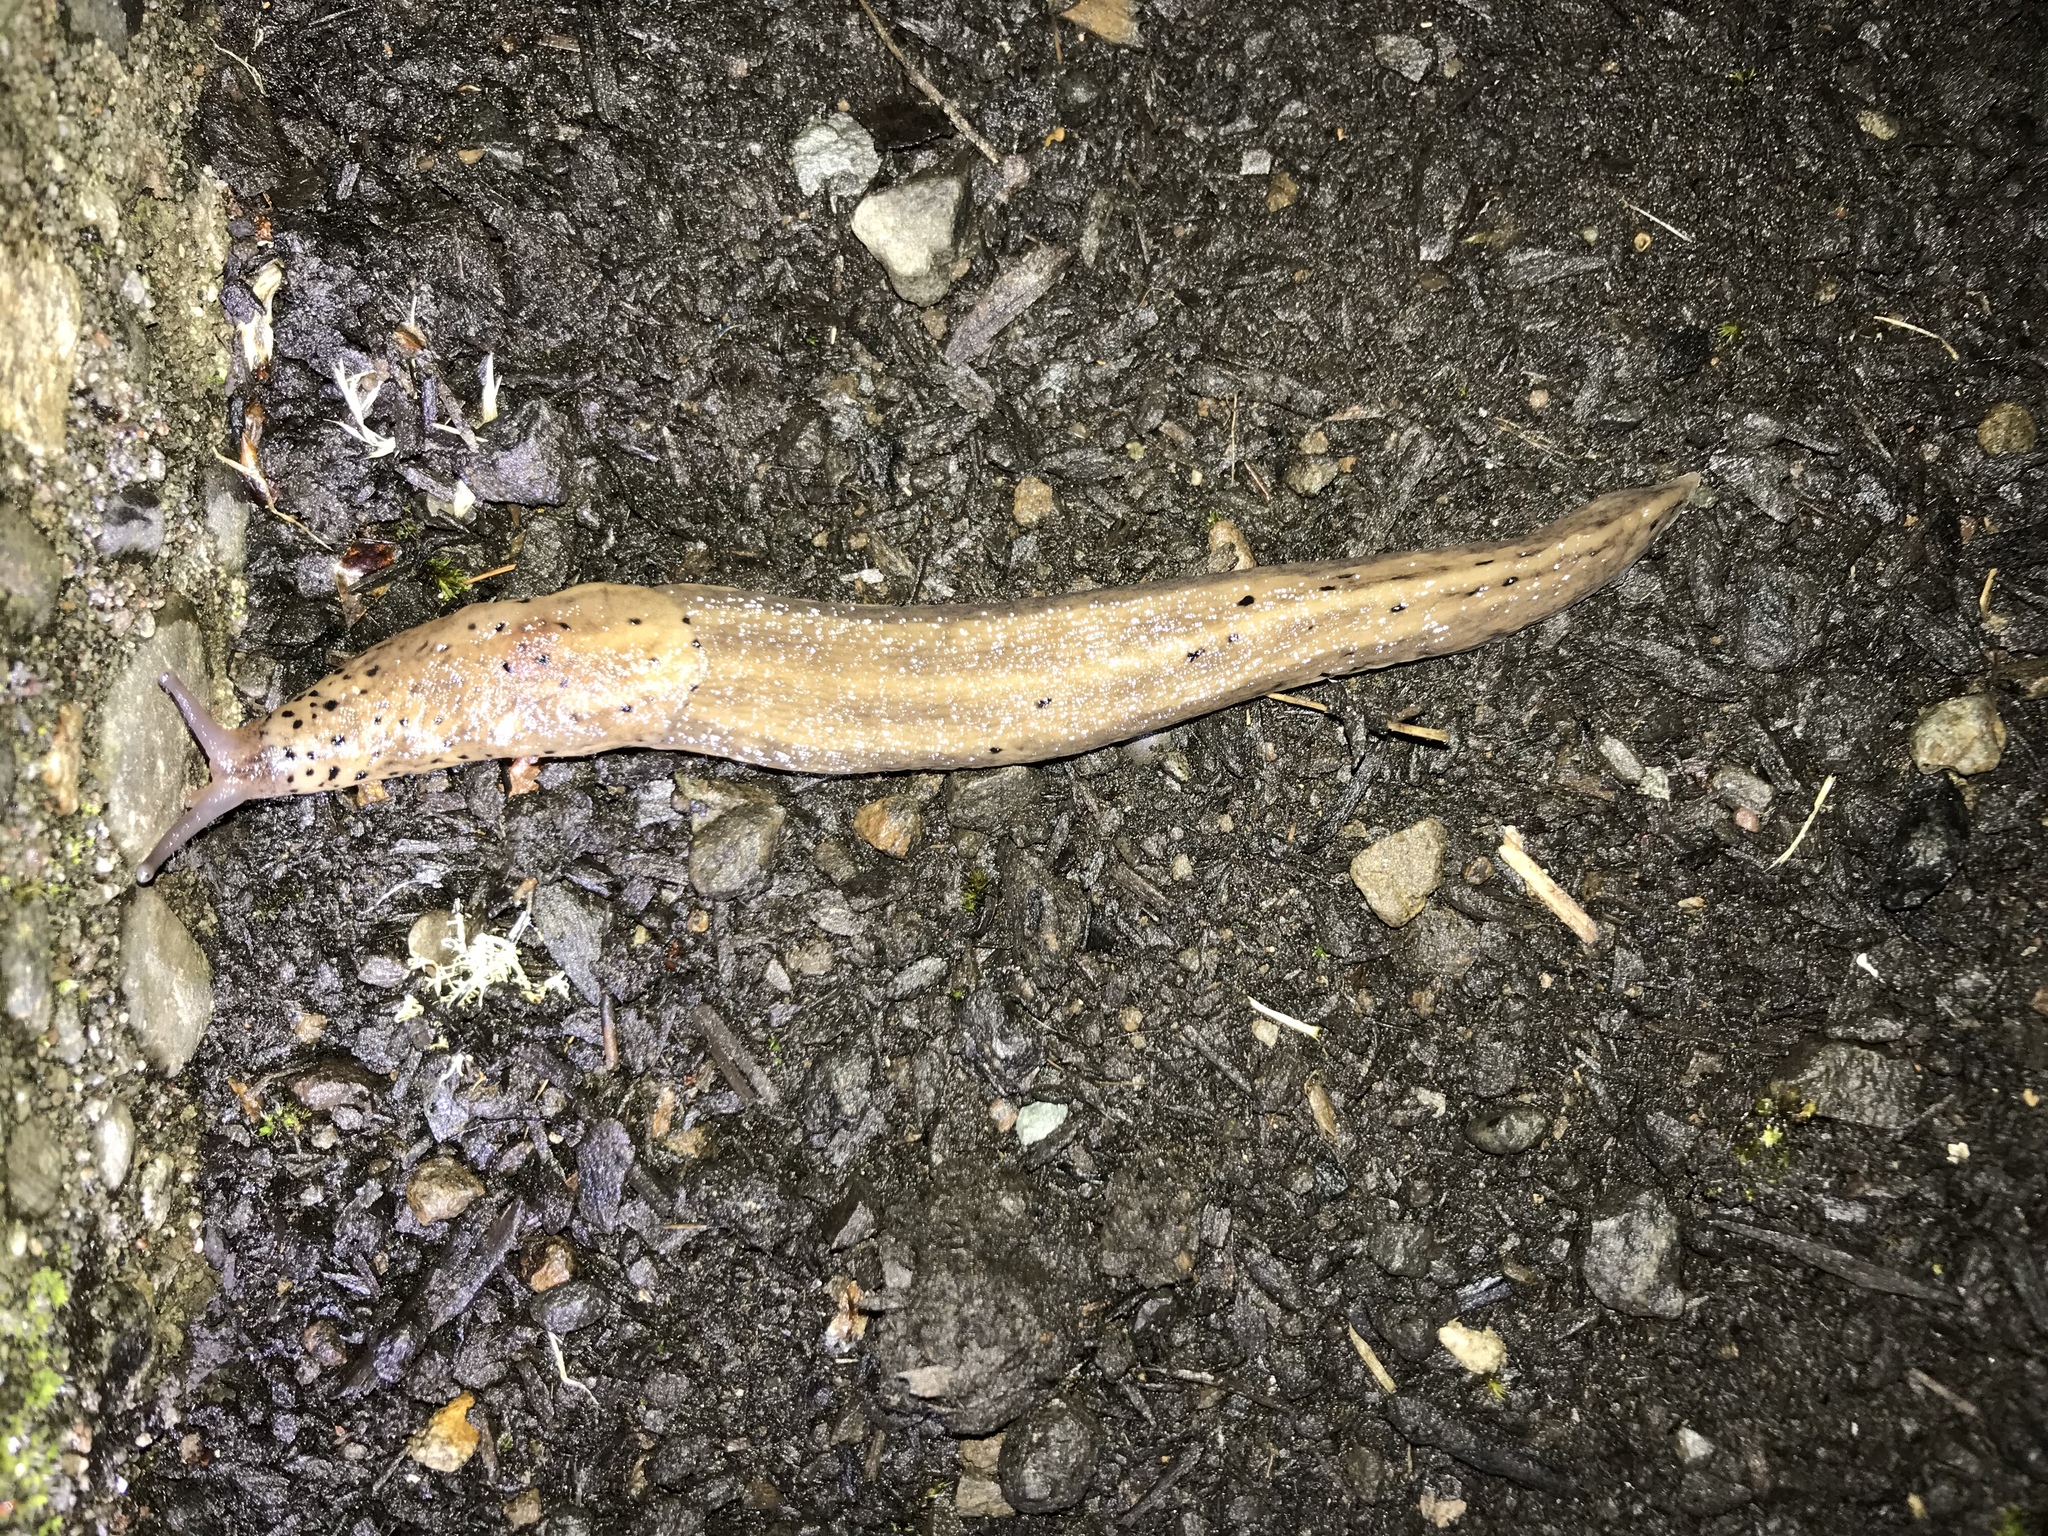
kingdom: Animalia
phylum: Mollusca
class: Gastropoda
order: Stylommatophora
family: Limacidae
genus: Limax
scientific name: Limax maximus
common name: Great grey slug
